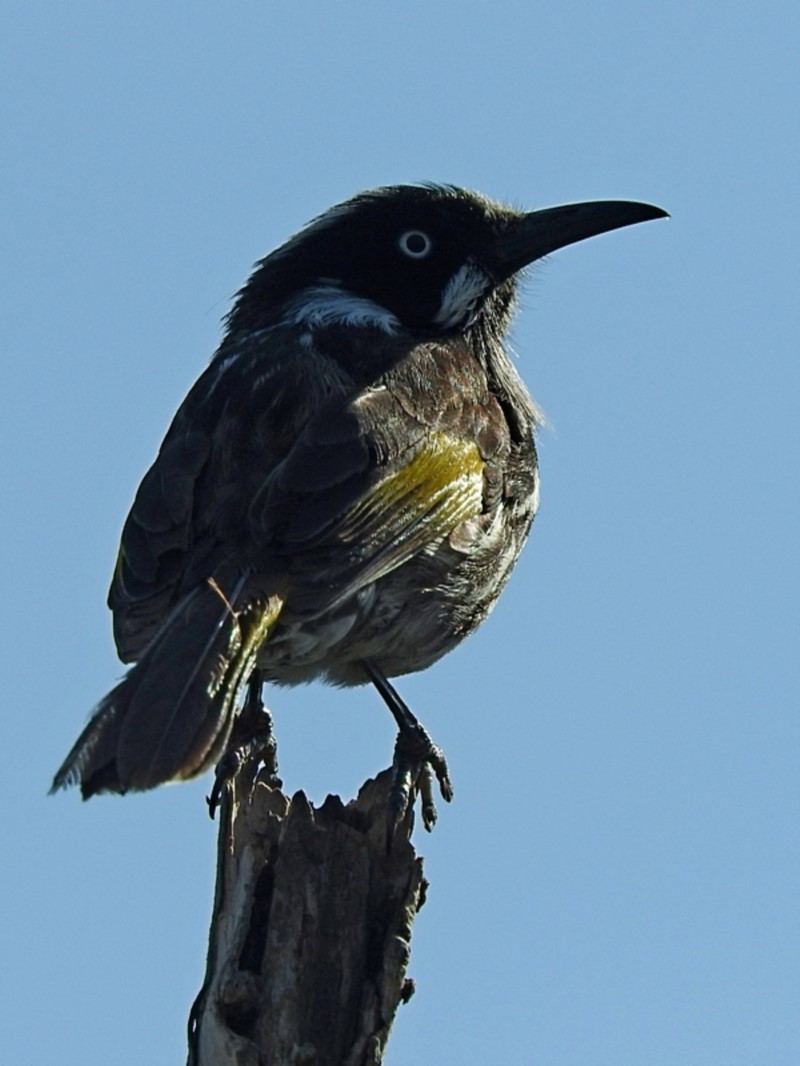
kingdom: Animalia
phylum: Chordata
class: Aves
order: Passeriformes
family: Meliphagidae
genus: Phylidonyris
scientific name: Phylidonyris novaehollandiae
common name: New holland honeyeater
